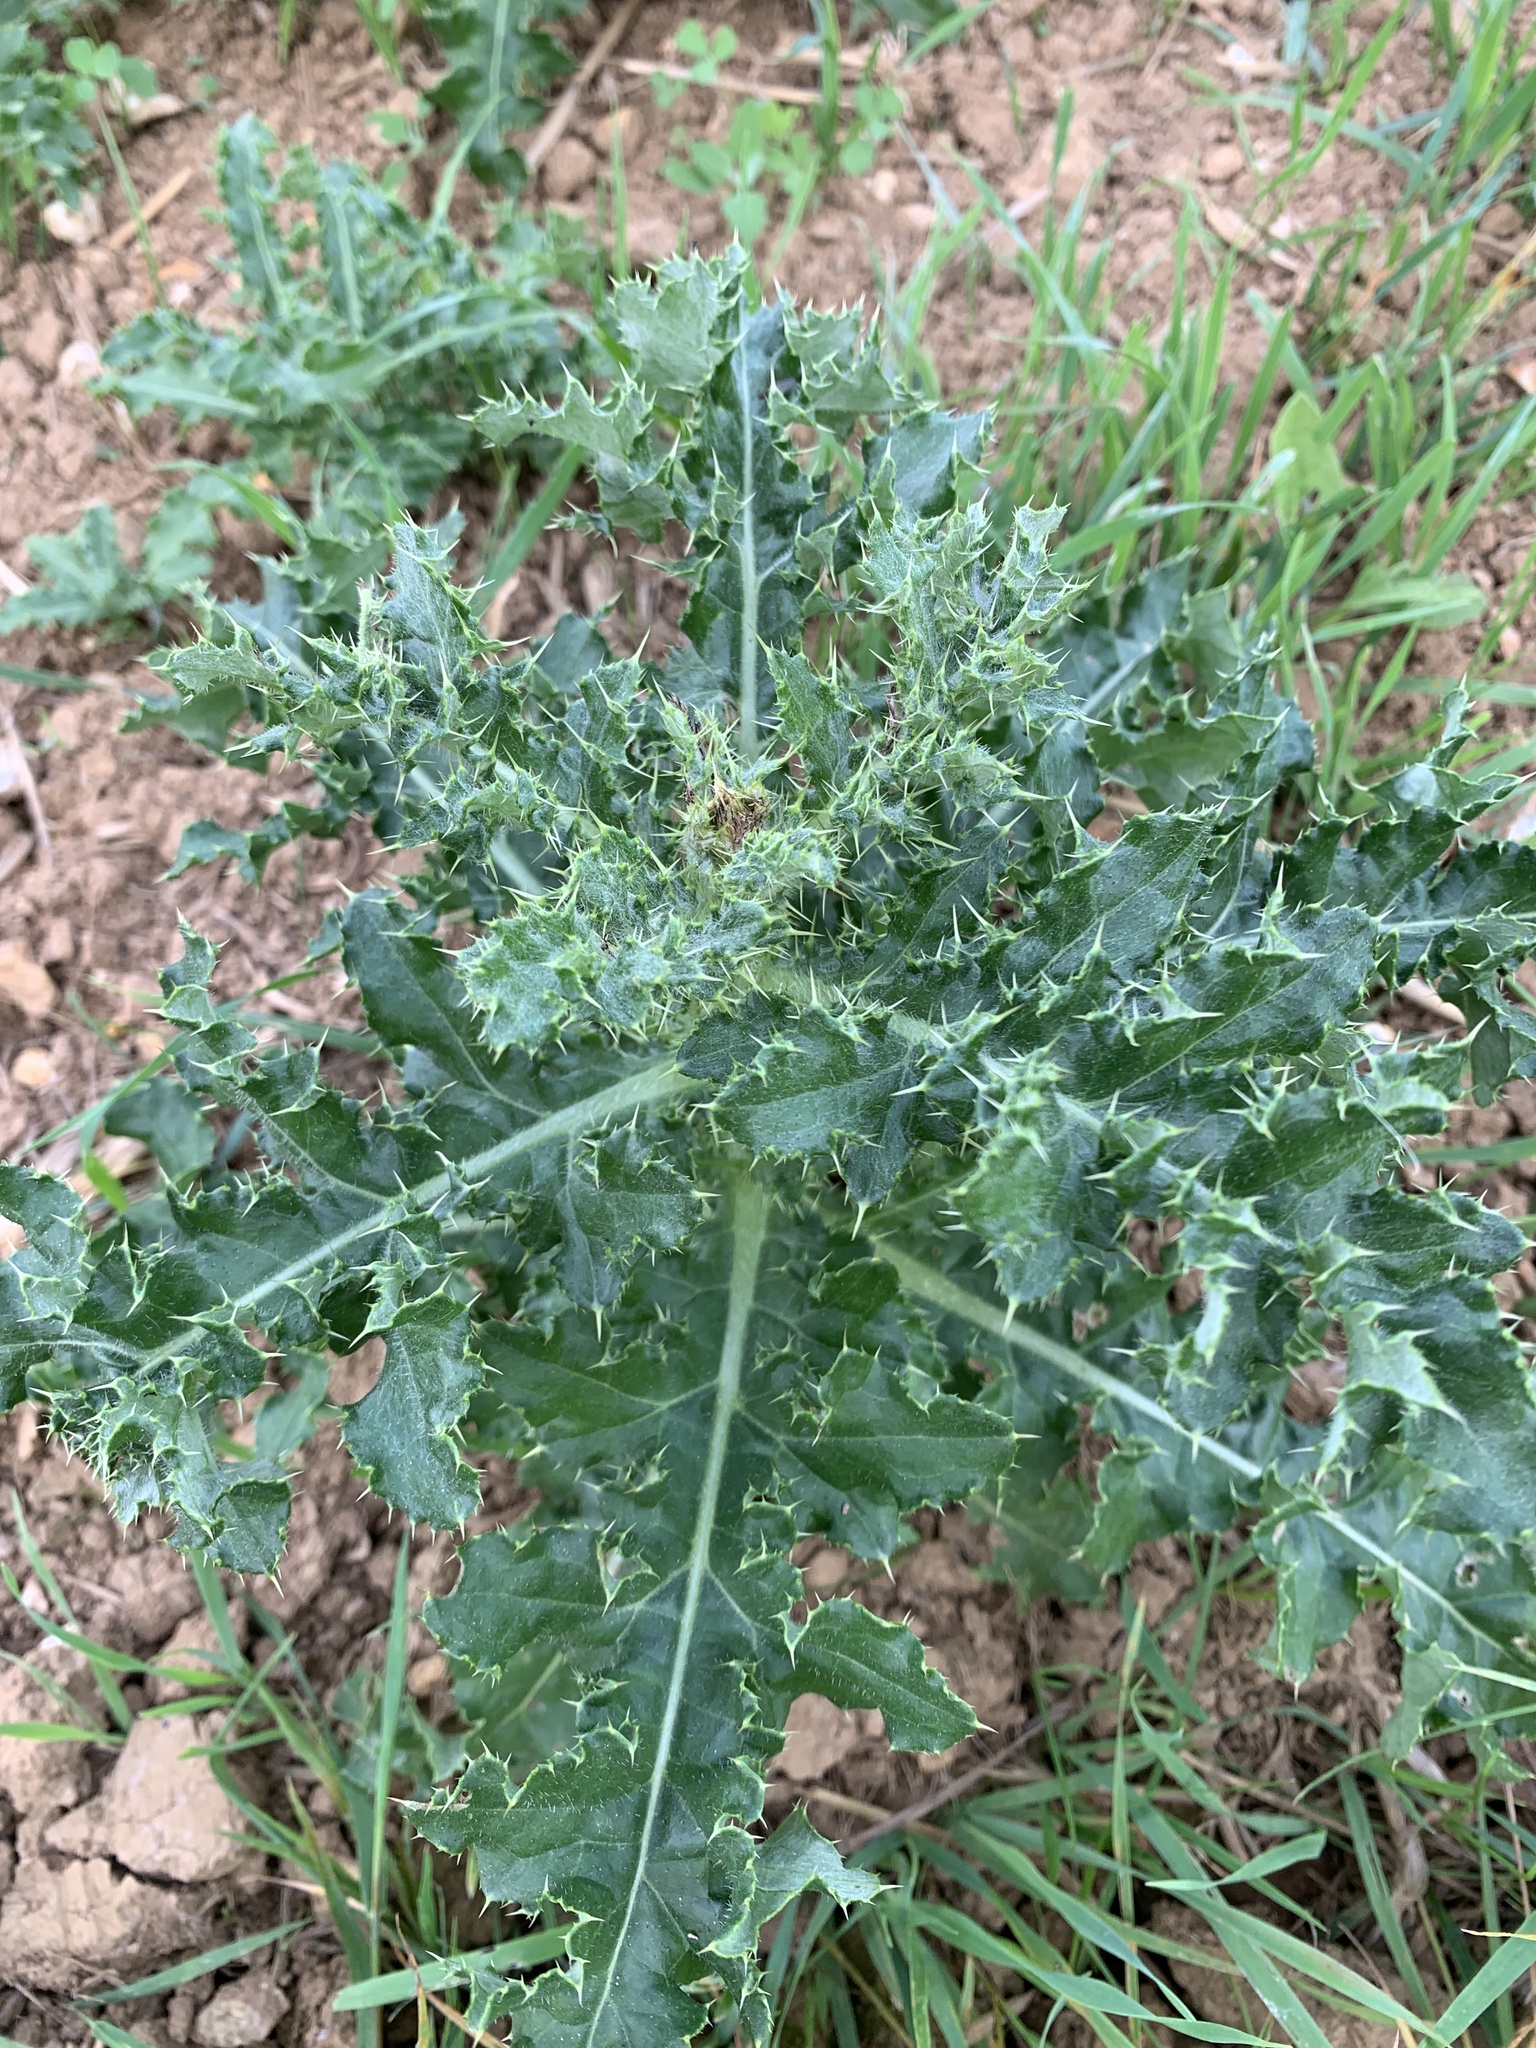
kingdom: Plantae
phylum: Tracheophyta
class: Magnoliopsida
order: Asterales
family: Asteraceae
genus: Cirsium
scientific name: Cirsium arvense
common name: Creeping thistle
